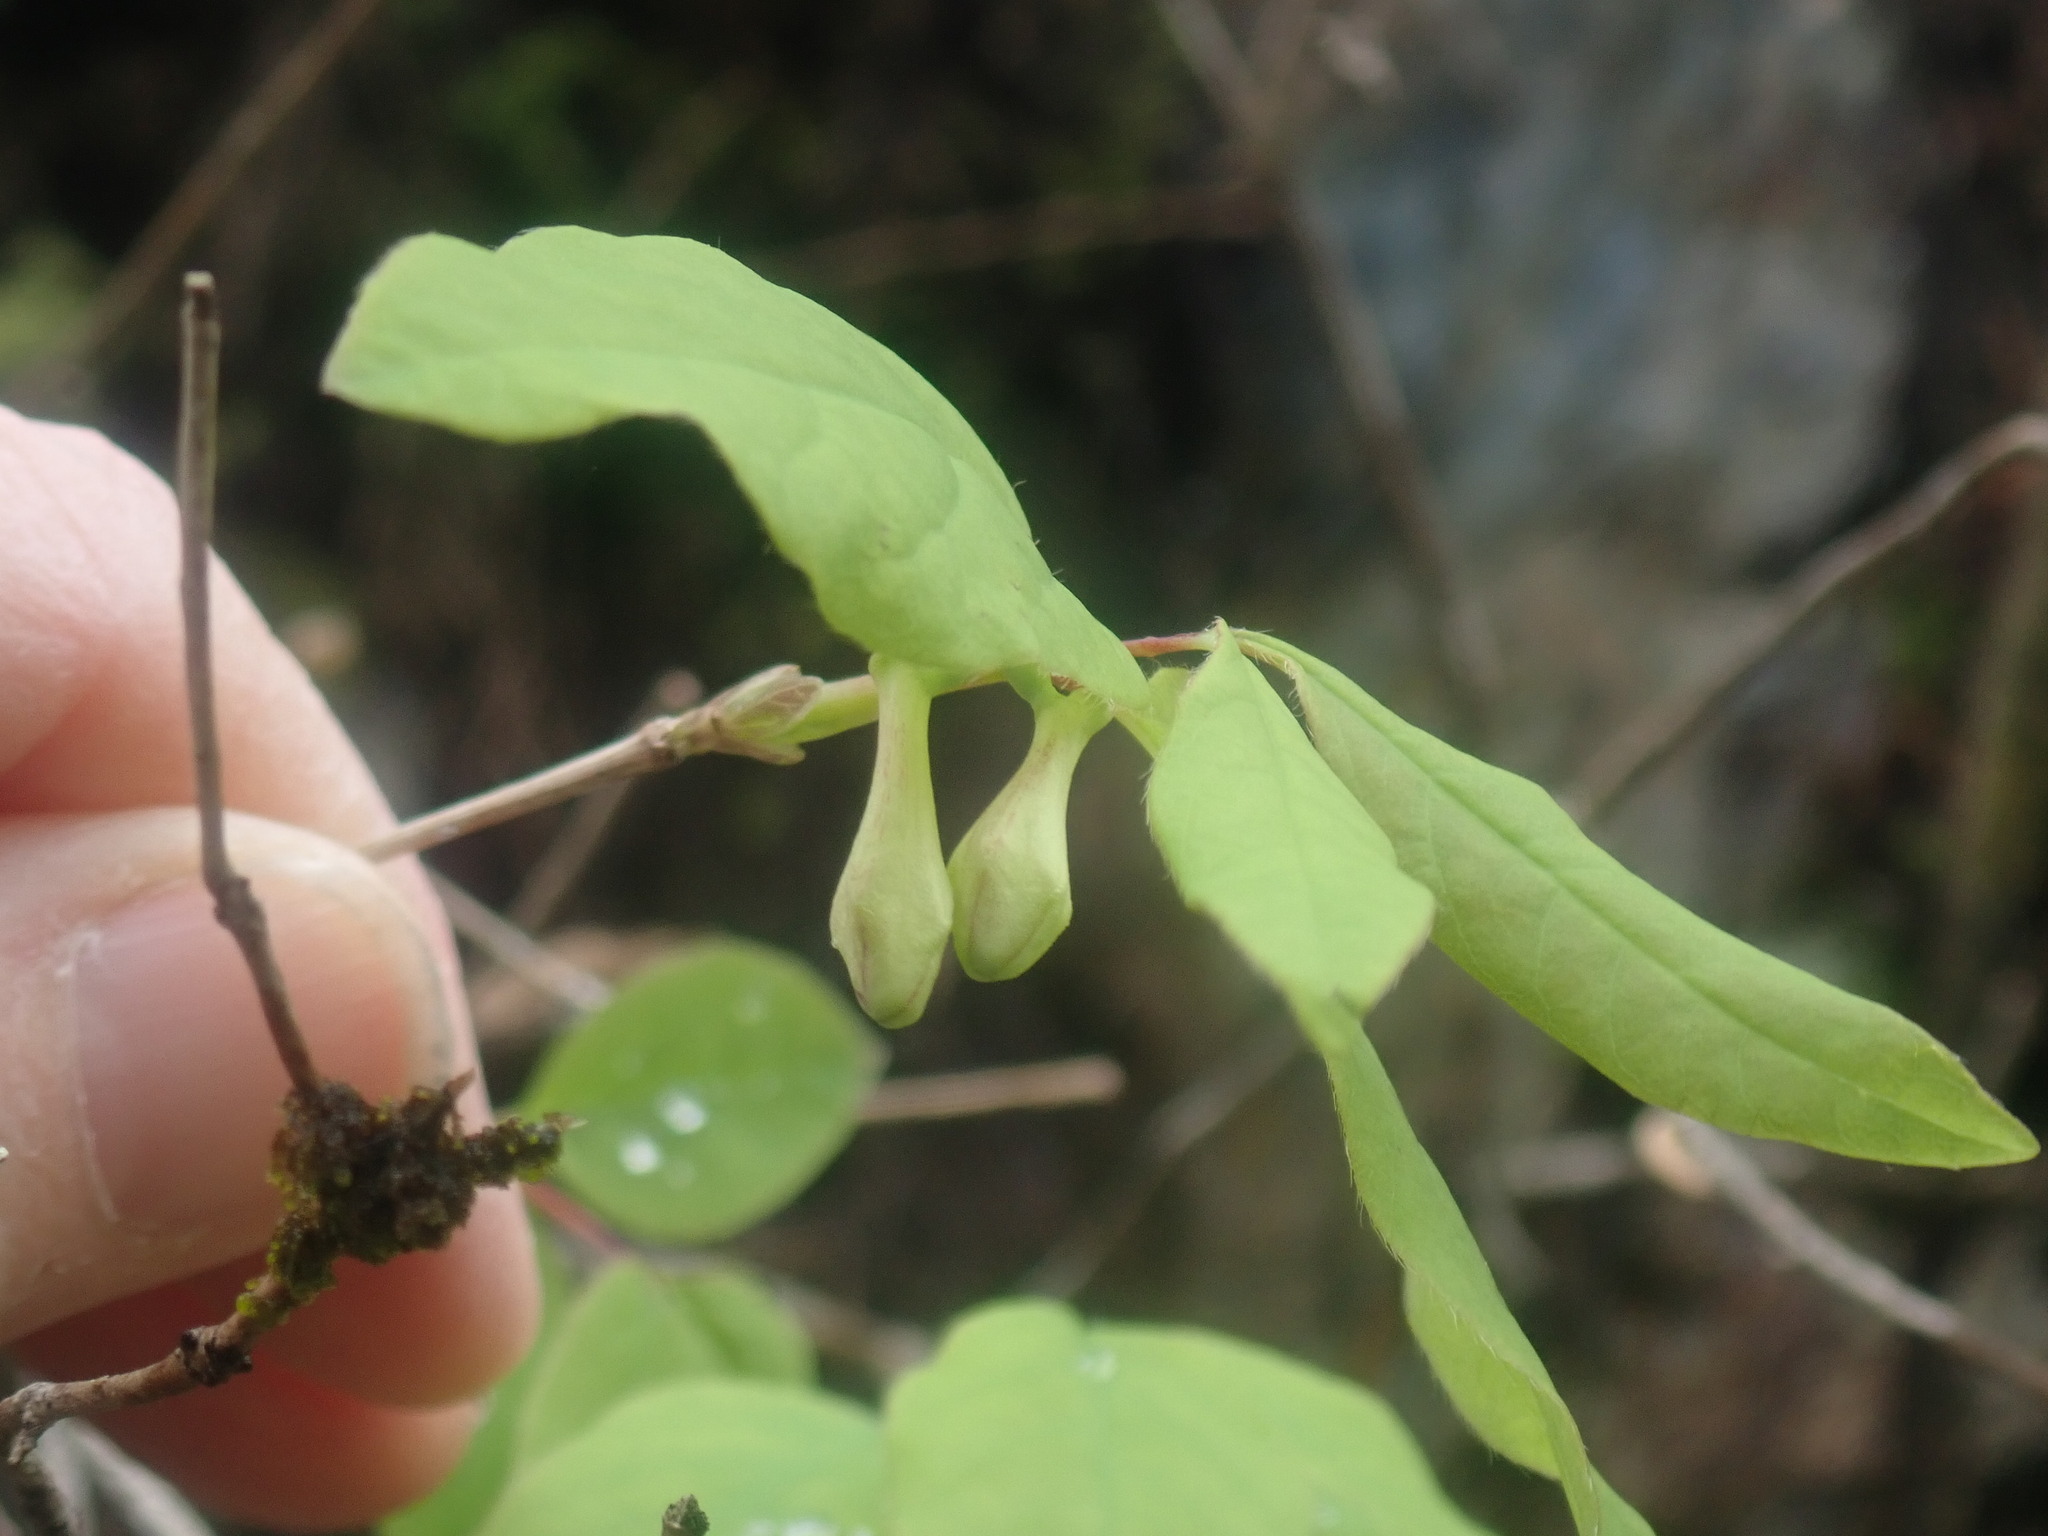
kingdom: Plantae
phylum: Tracheophyta
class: Magnoliopsida
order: Dipsacales
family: Caprifoliaceae
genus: Lonicera
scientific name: Lonicera canadensis
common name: American fly-honeysuckle
